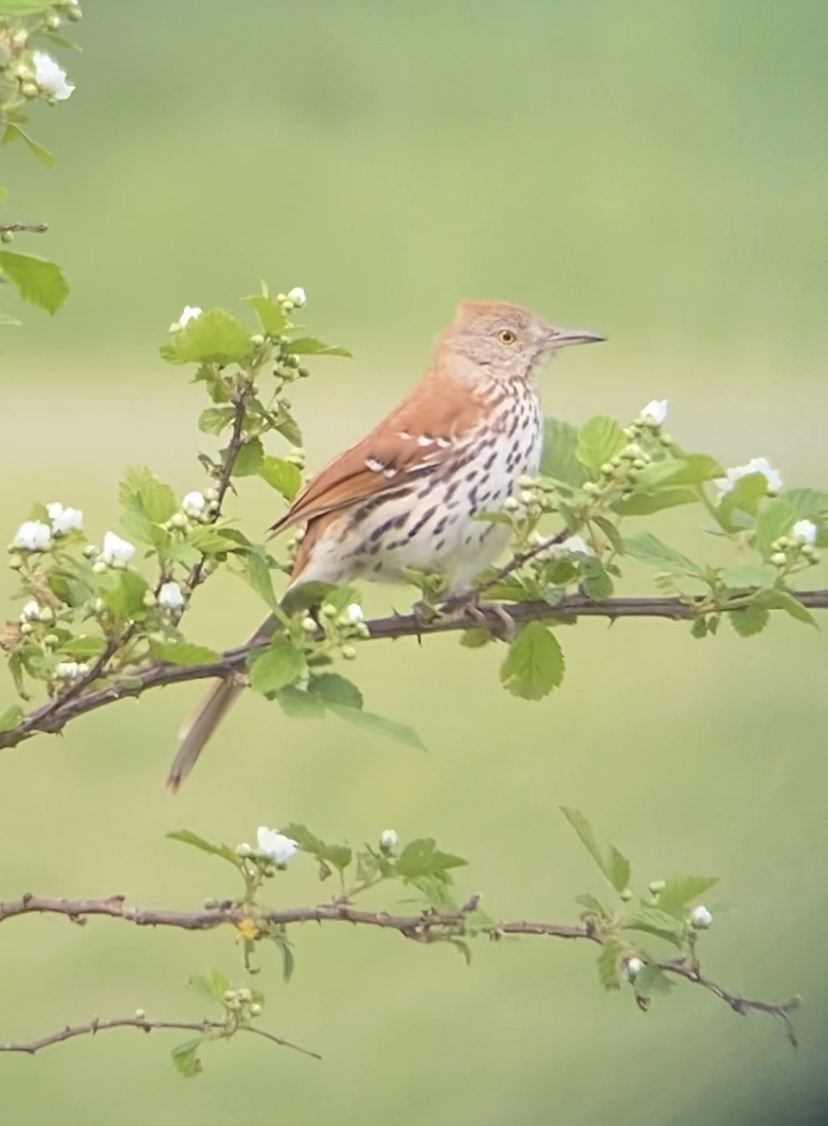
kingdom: Animalia
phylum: Chordata
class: Aves
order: Passeriformes
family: Mimidae
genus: Toxostoma
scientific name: Toxostoma rufum
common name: Brown thrasher
